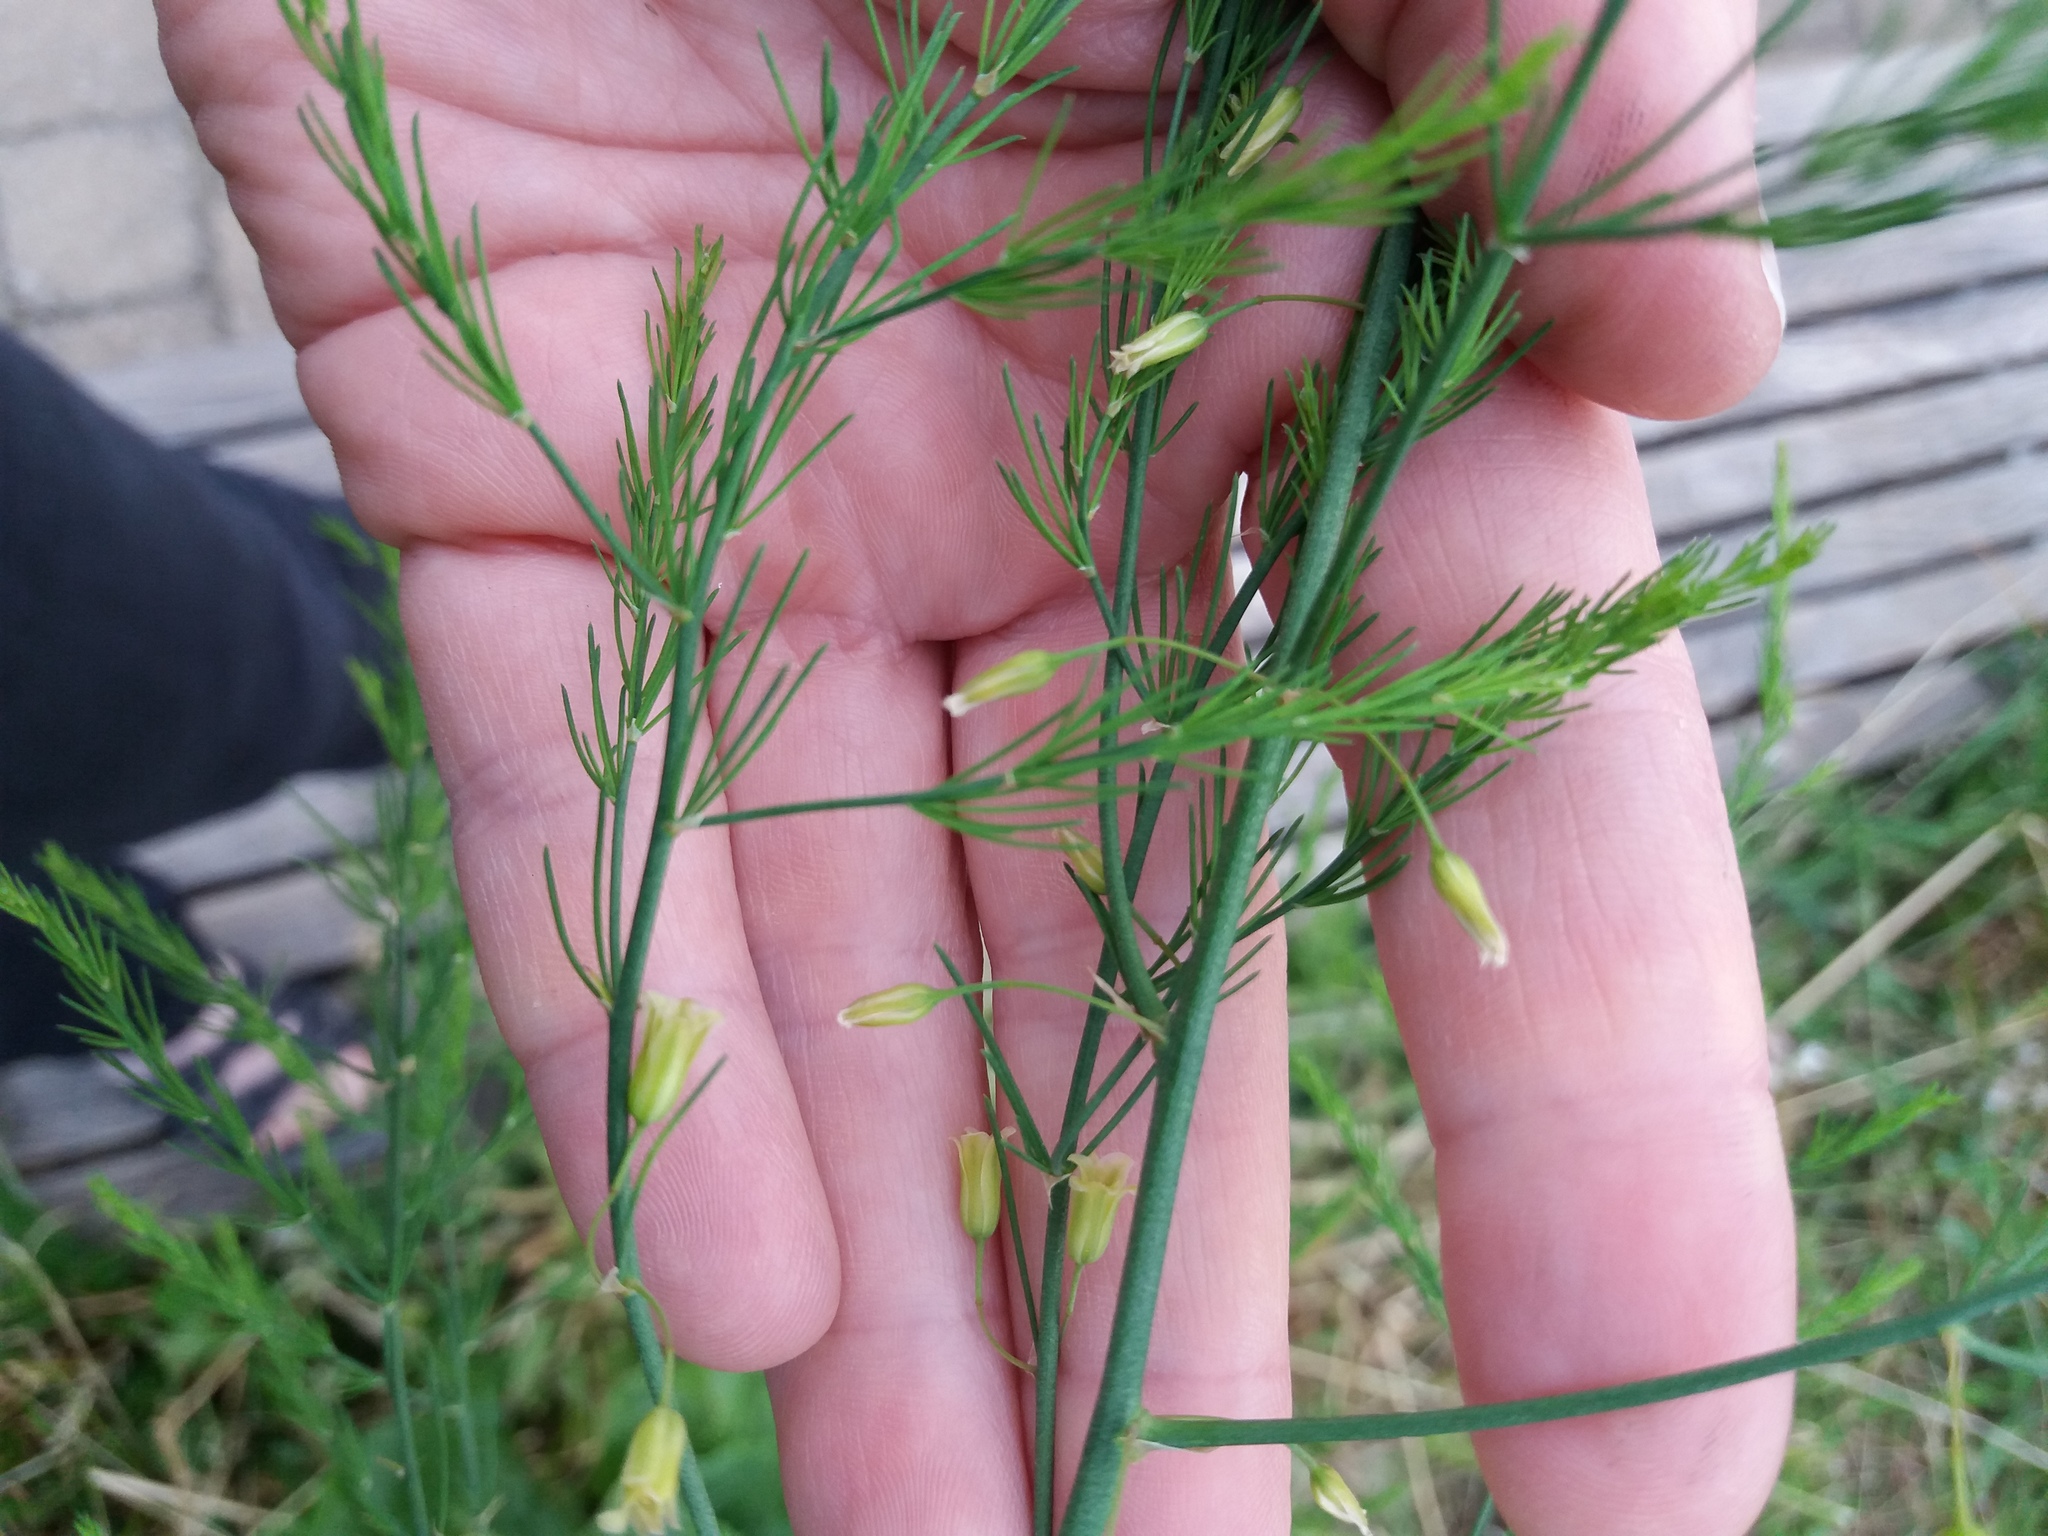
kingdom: Plantae
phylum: Tracheophyta
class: Liliopsida
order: Asparagales
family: Asparagaceae
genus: Asparagus
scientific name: Asparagus officinalis
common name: Garden asparagus
